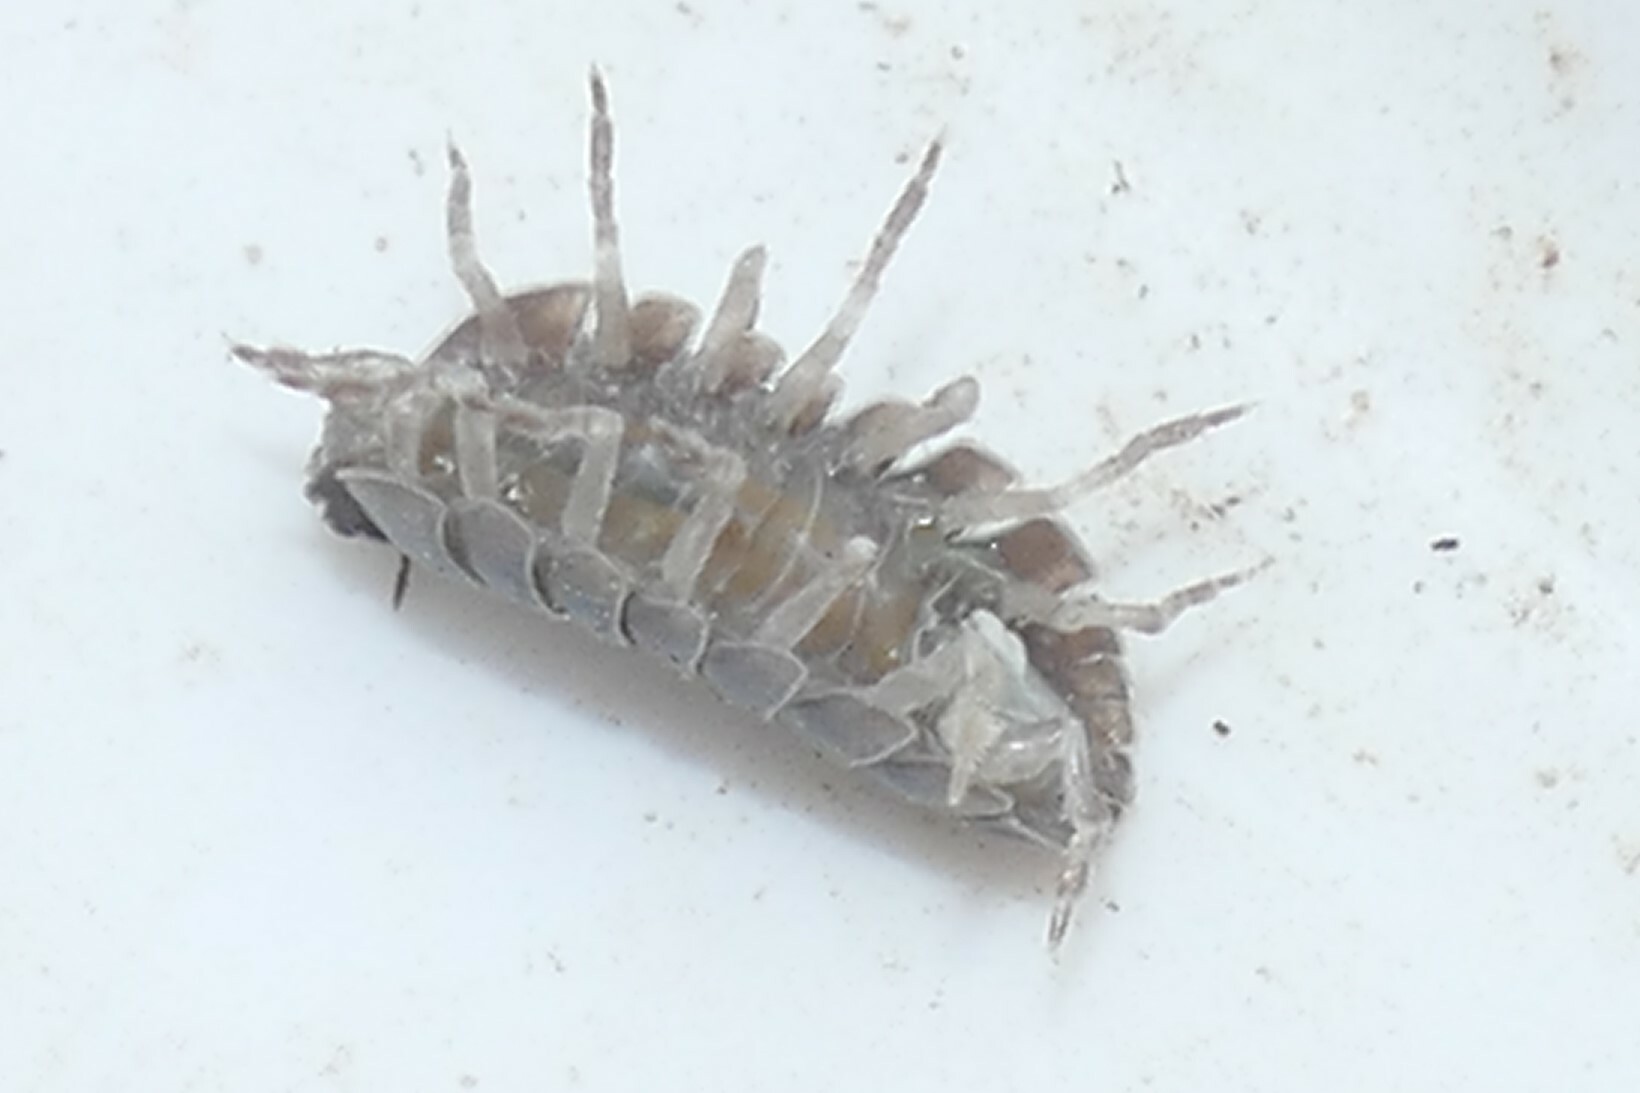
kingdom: Animalia
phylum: Arthropoda
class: Malacostraca
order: Isopoda
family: Armadillidiidae
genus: Armadillidium
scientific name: Armadillidium vulgare
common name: Common pill woodlouse
